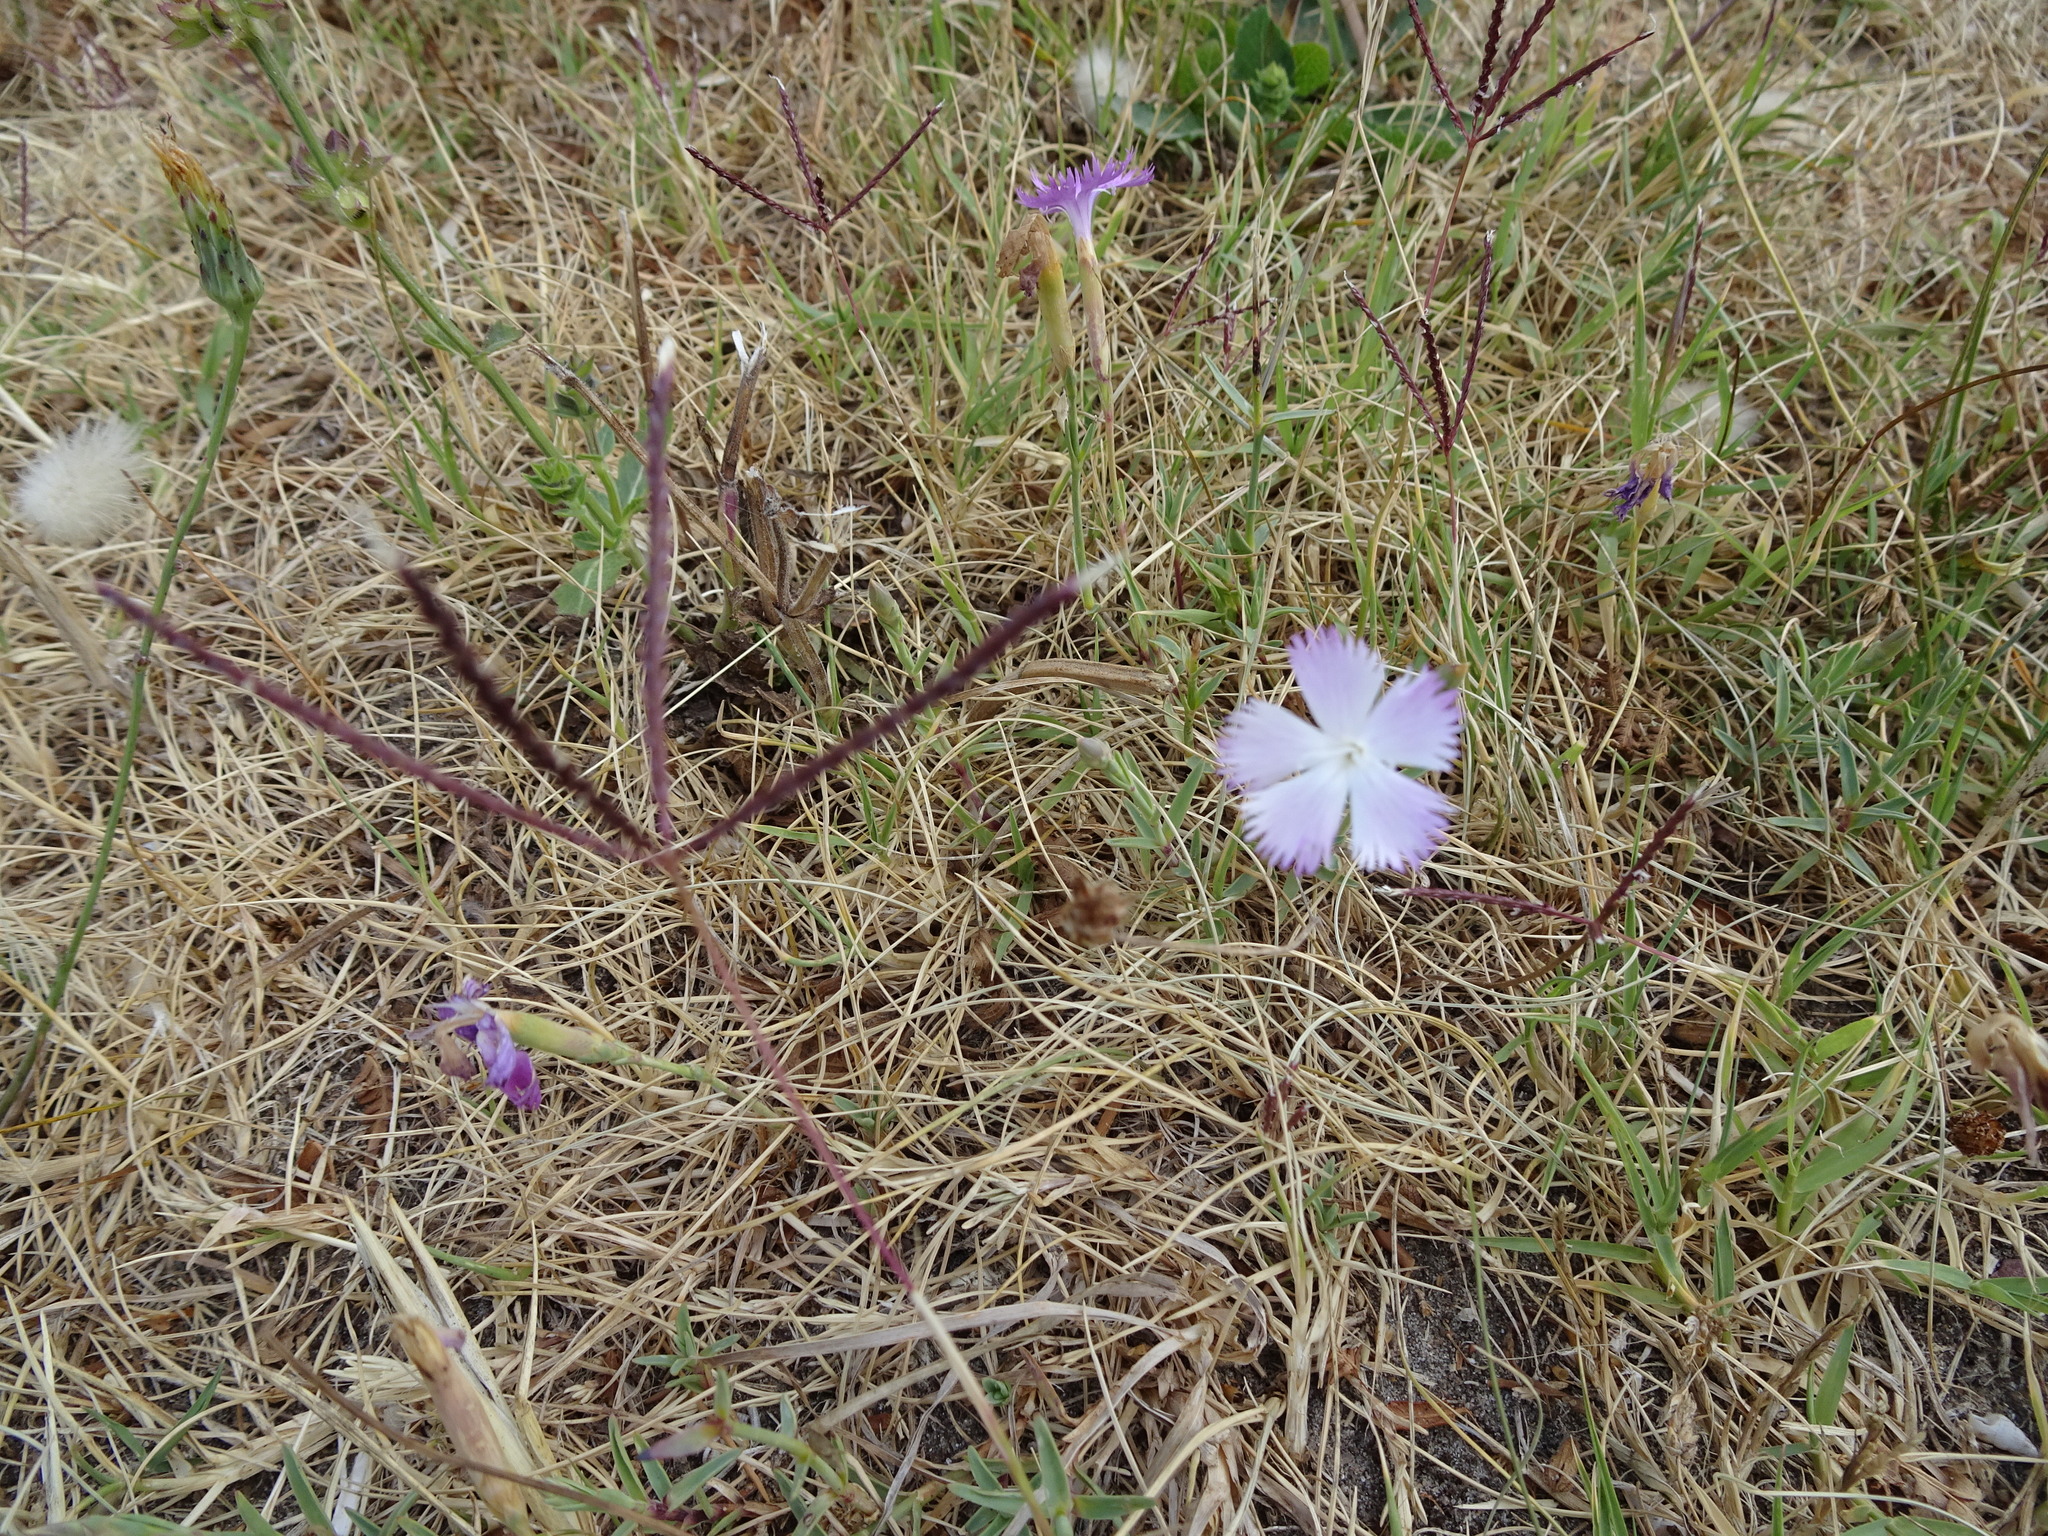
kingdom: Plantae
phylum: Tracheophyta
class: Magnoliopsida
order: Caryophyllales
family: Caryophyllaceae
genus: Dianthus
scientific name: Dianthus gallicus
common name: Jersey pink
